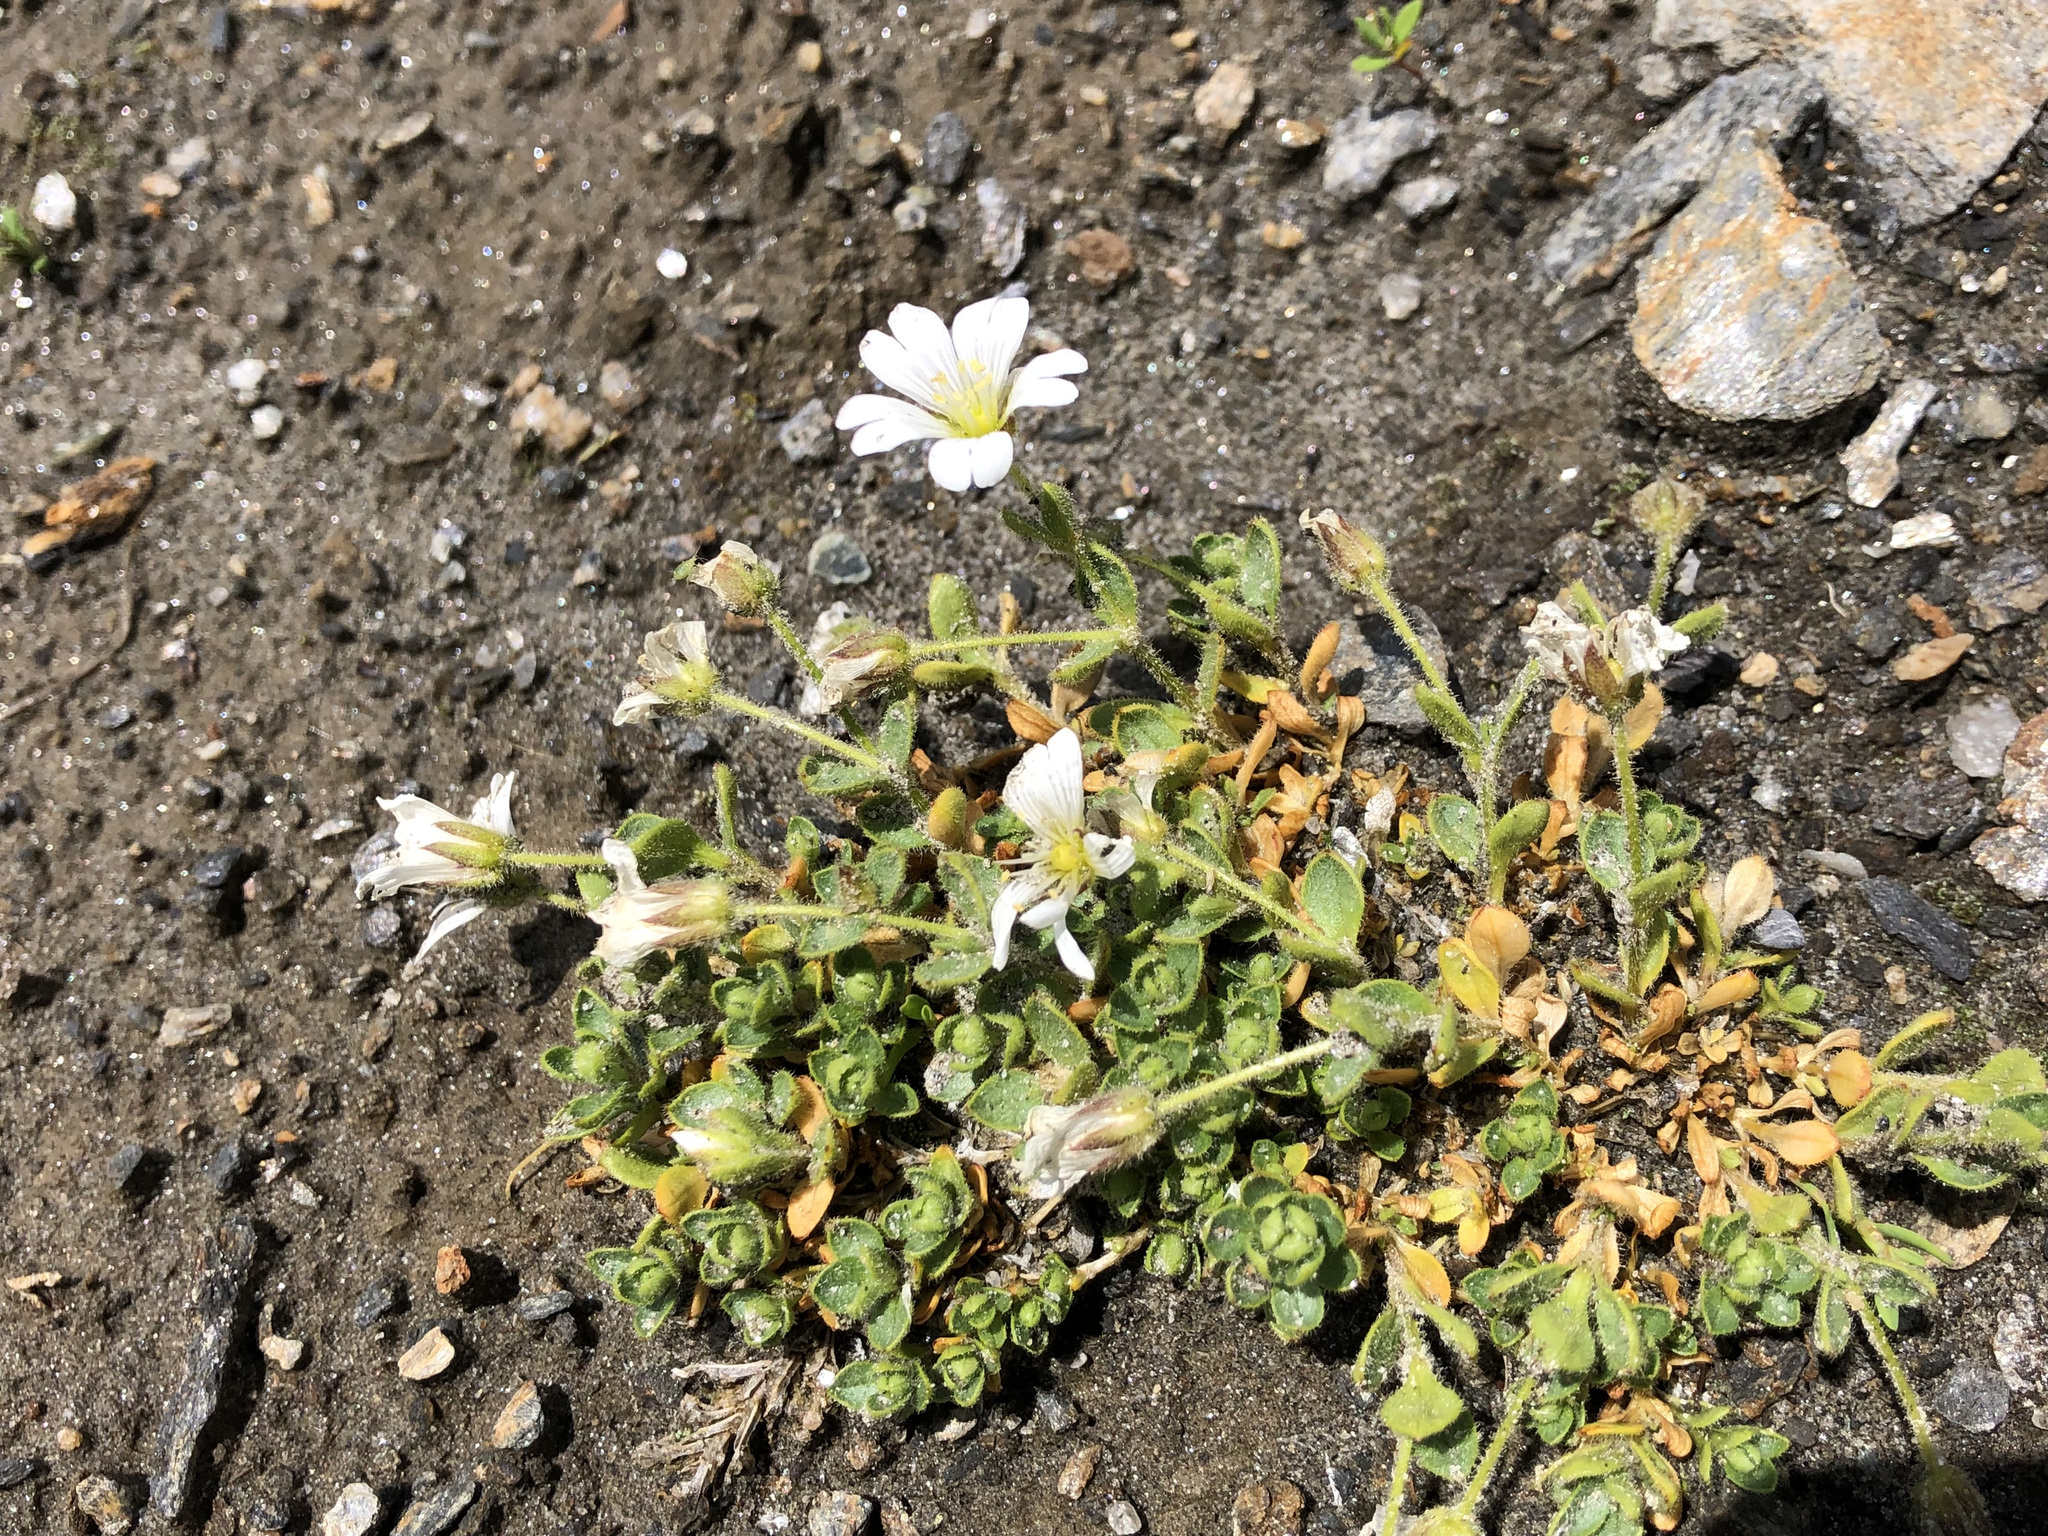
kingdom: Plantae
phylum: Tracheophyta
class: Magnoliopsida
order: Caryophyllales
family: Caryophyllaceae
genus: Cerastium
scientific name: Cerastium uniflorum
